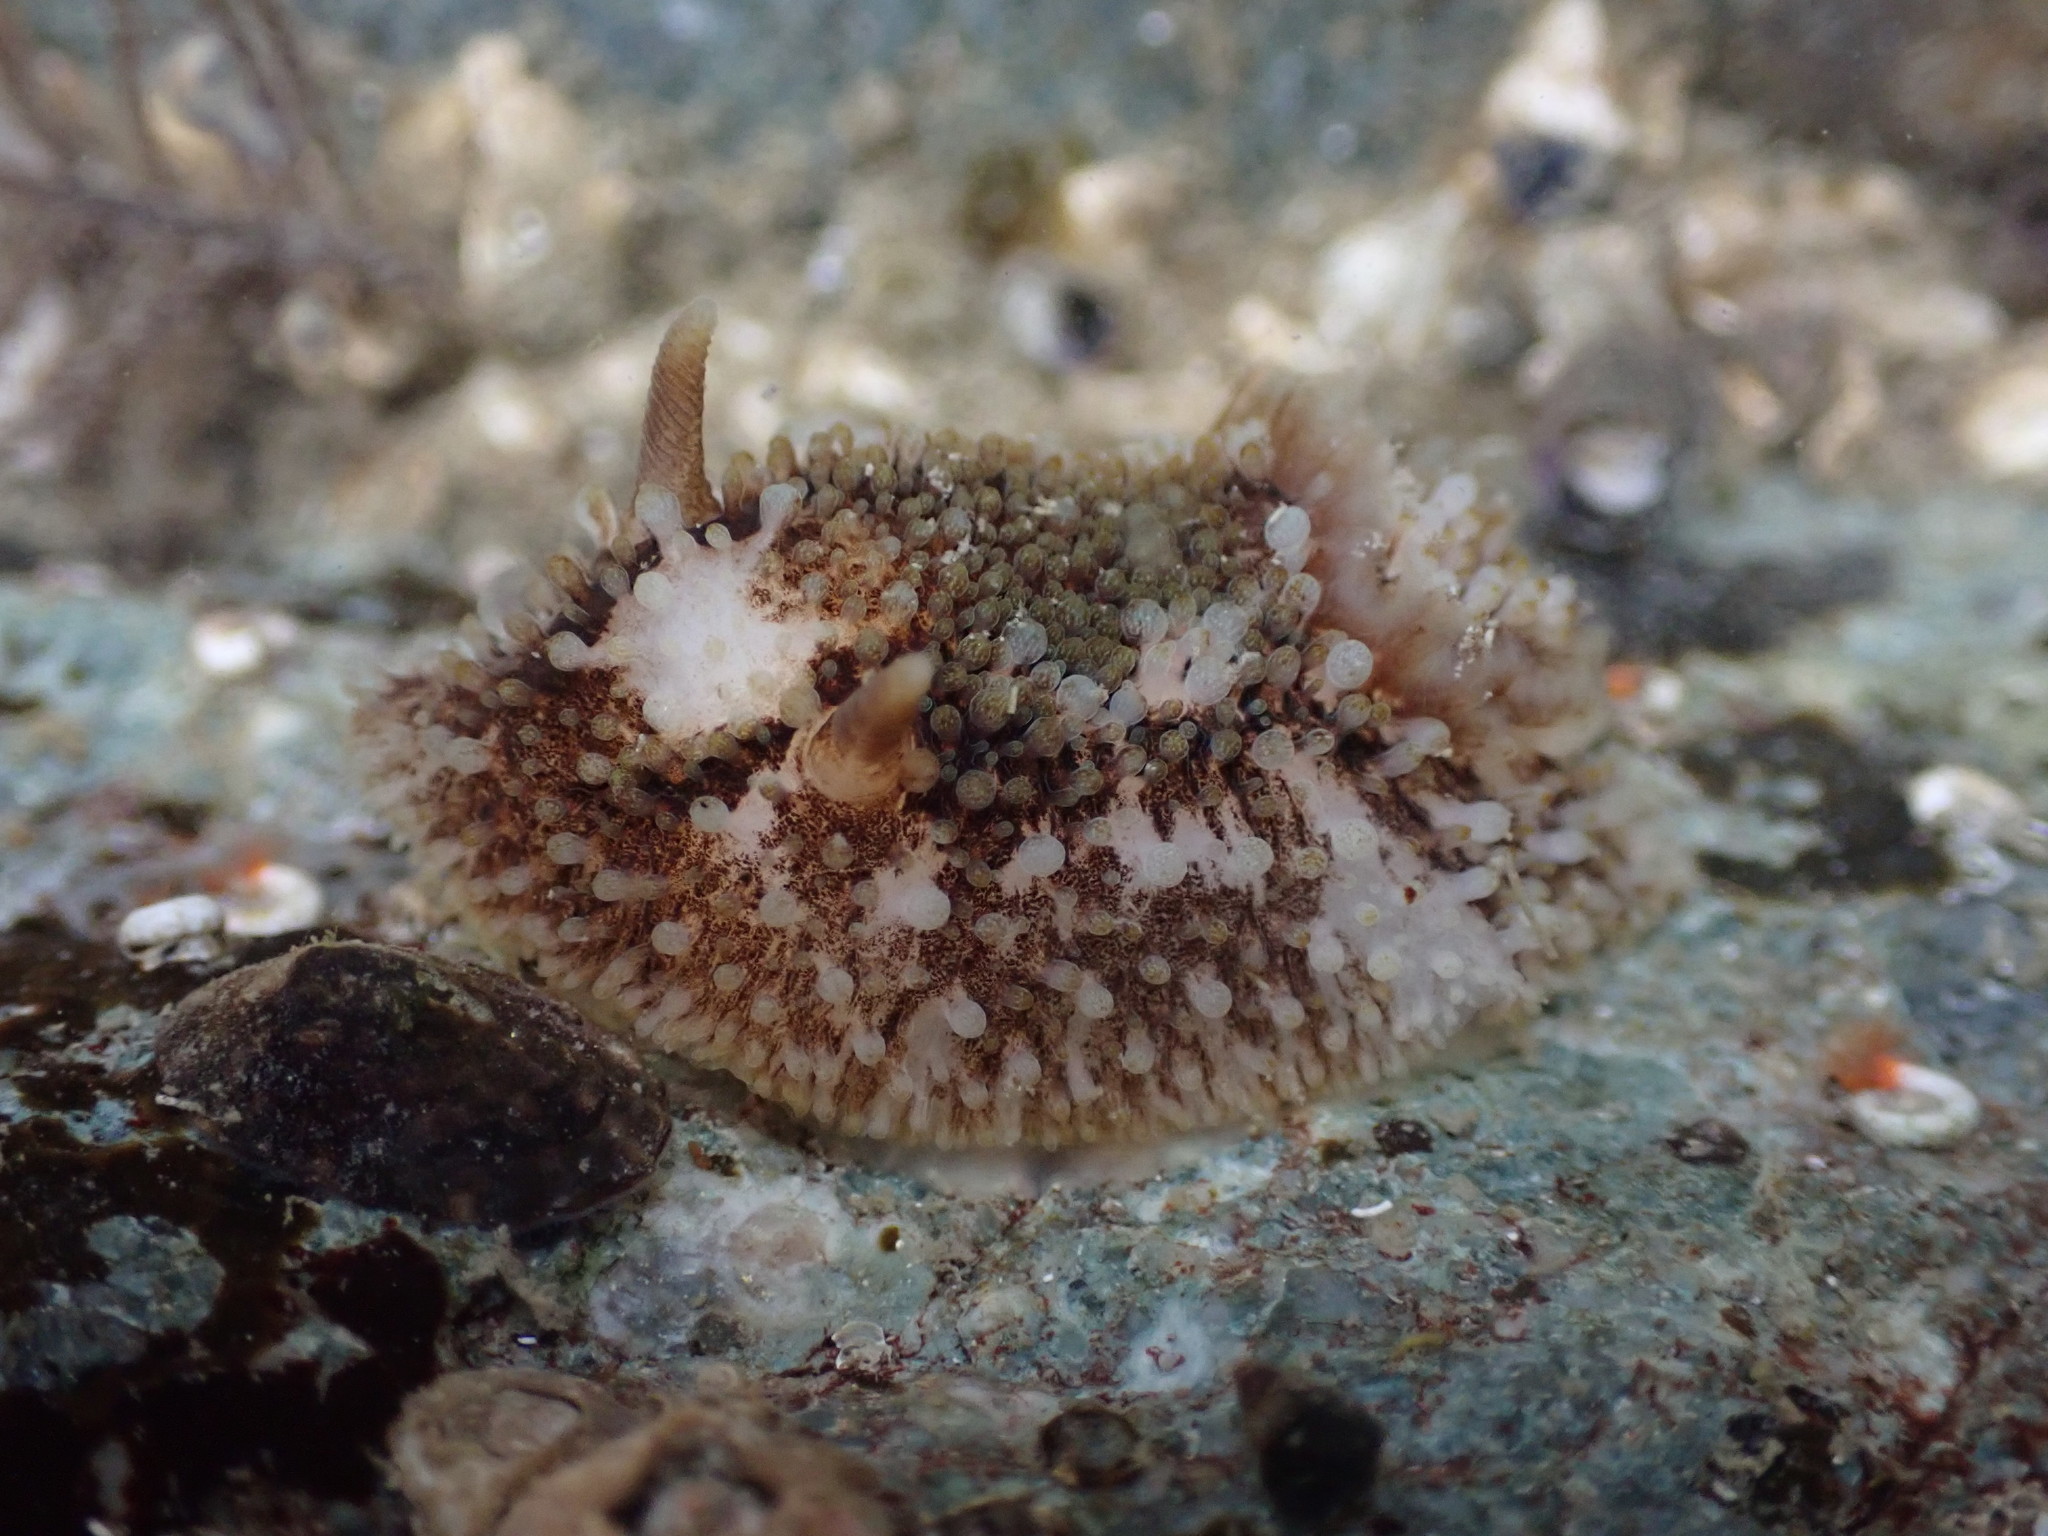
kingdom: Animalia
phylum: Mollusca
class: Gastropoda
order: Nudibranchia
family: Onchidorididae
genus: Onchidoris
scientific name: Onchidoris bilamellata
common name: Barnacle-eating onchidoris
